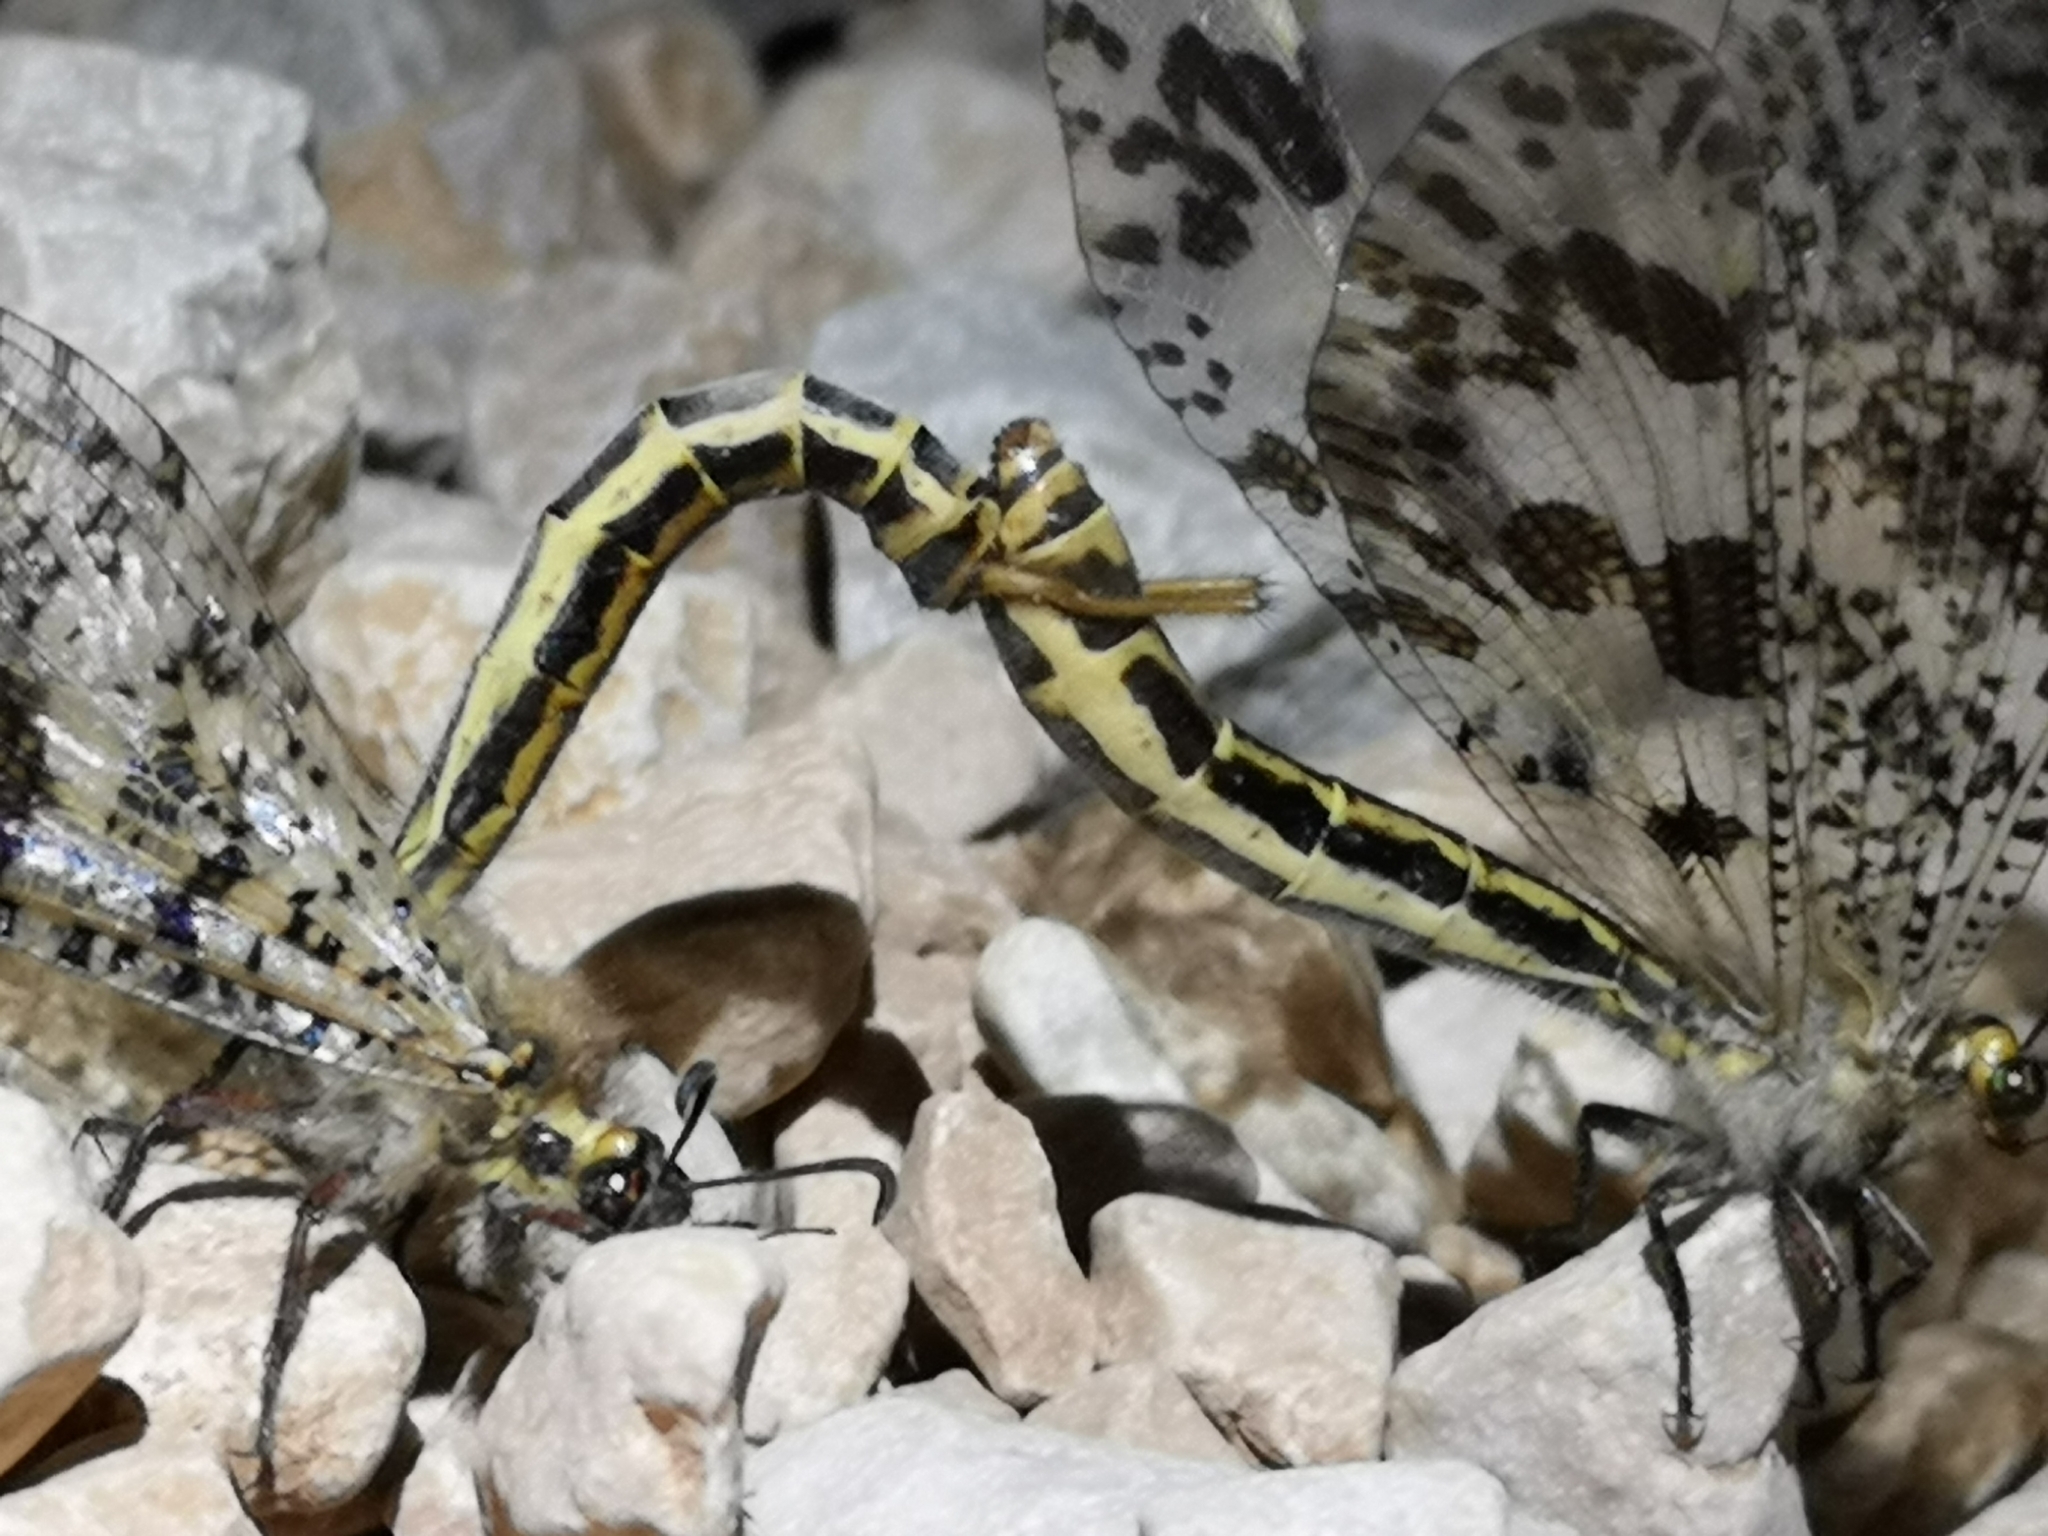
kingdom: Animalia
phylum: Arthropoda
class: Insecta
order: Neuroptera
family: Myrmeleontidae
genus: Palpares
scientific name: Palpares libelluloides
